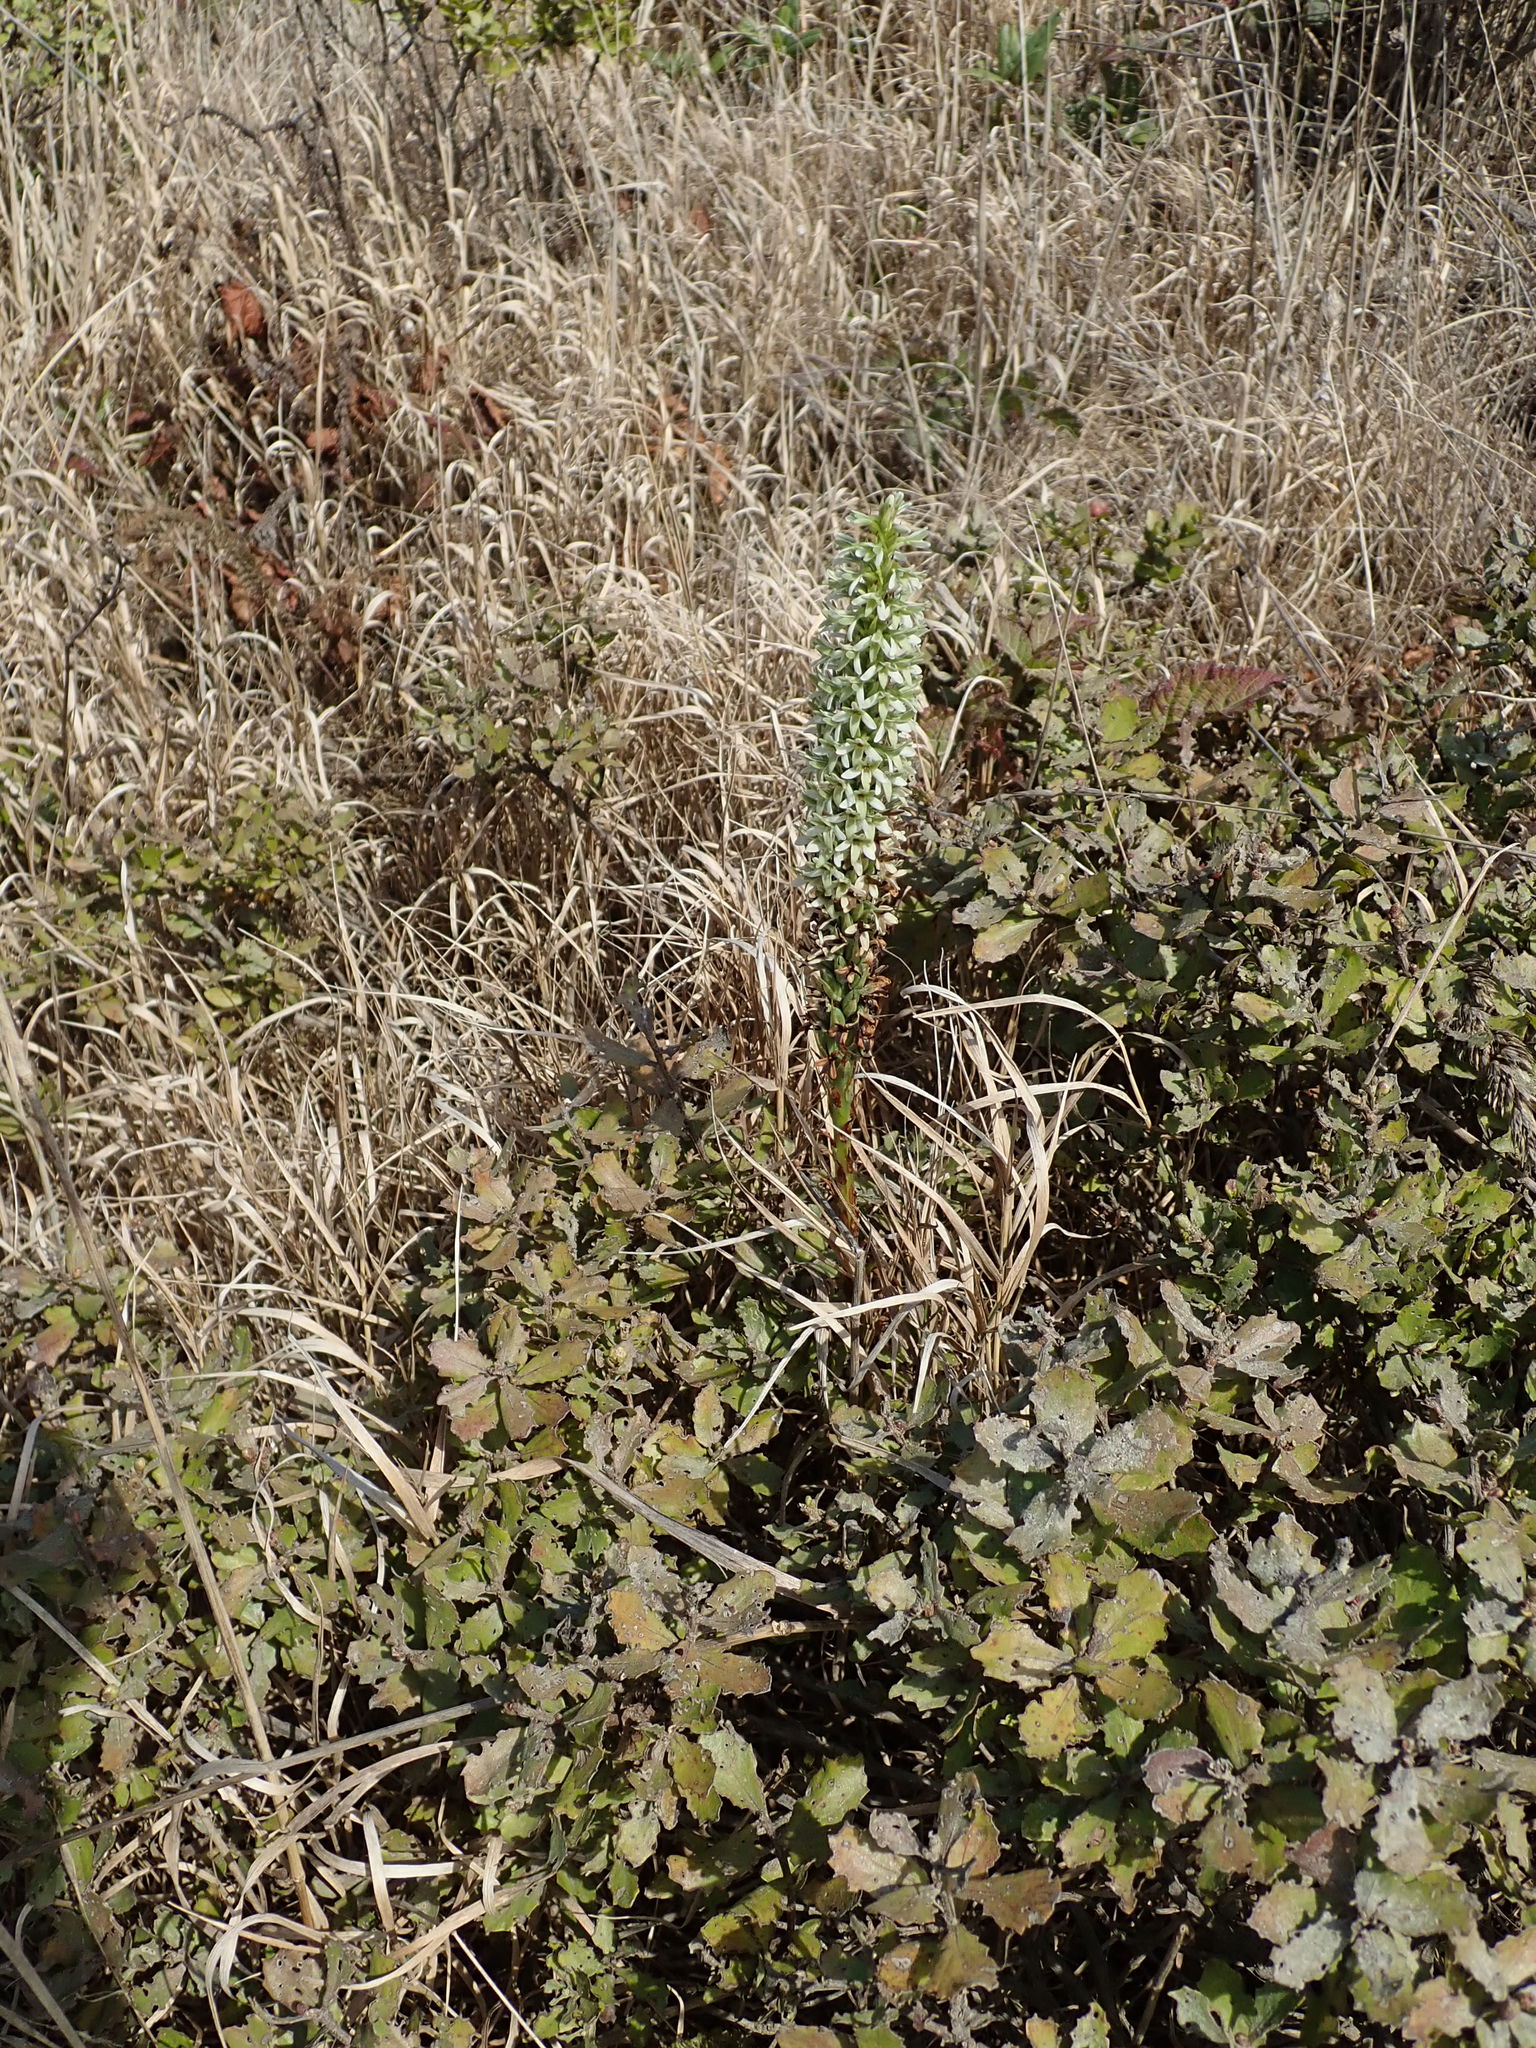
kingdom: Plantae
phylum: Tracheophyta
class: Liliopsida
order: Asparagales
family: Orchidaceae
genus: Platanthera
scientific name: Platanthera elegans
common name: Coast piperia
